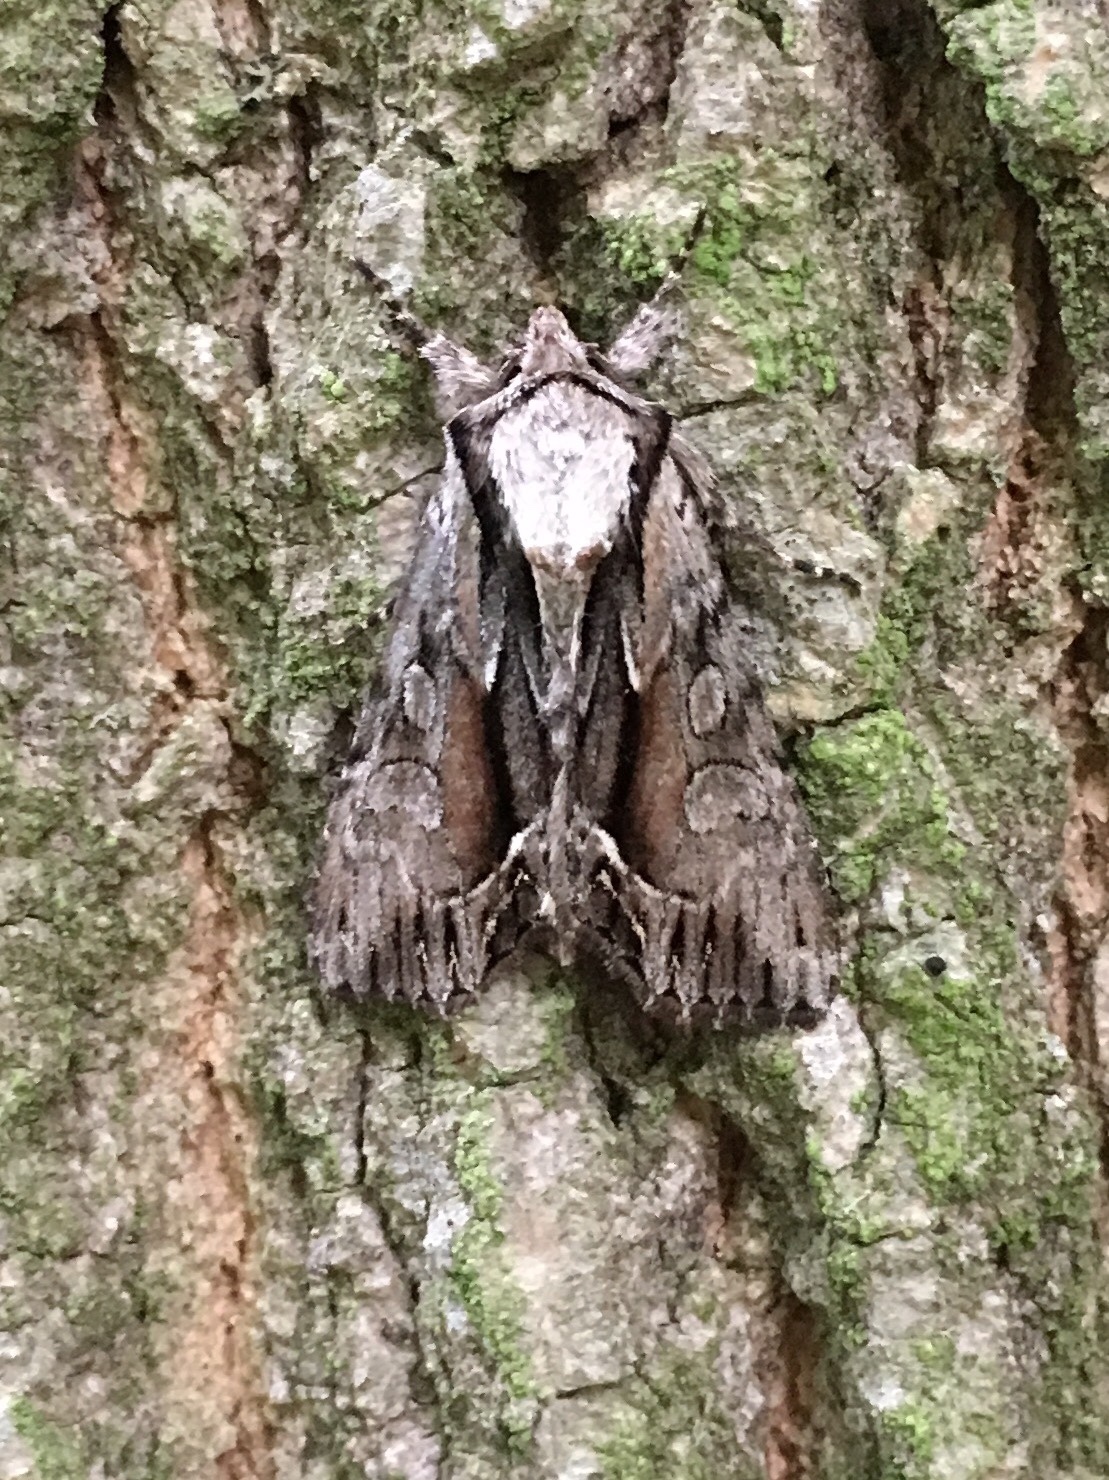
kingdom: Animalia
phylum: Arthropoda
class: Insecta
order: Lepidoptera
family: Noctuidae
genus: Hyppa
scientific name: Hyppa xylinoides
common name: Common hyppa moth
